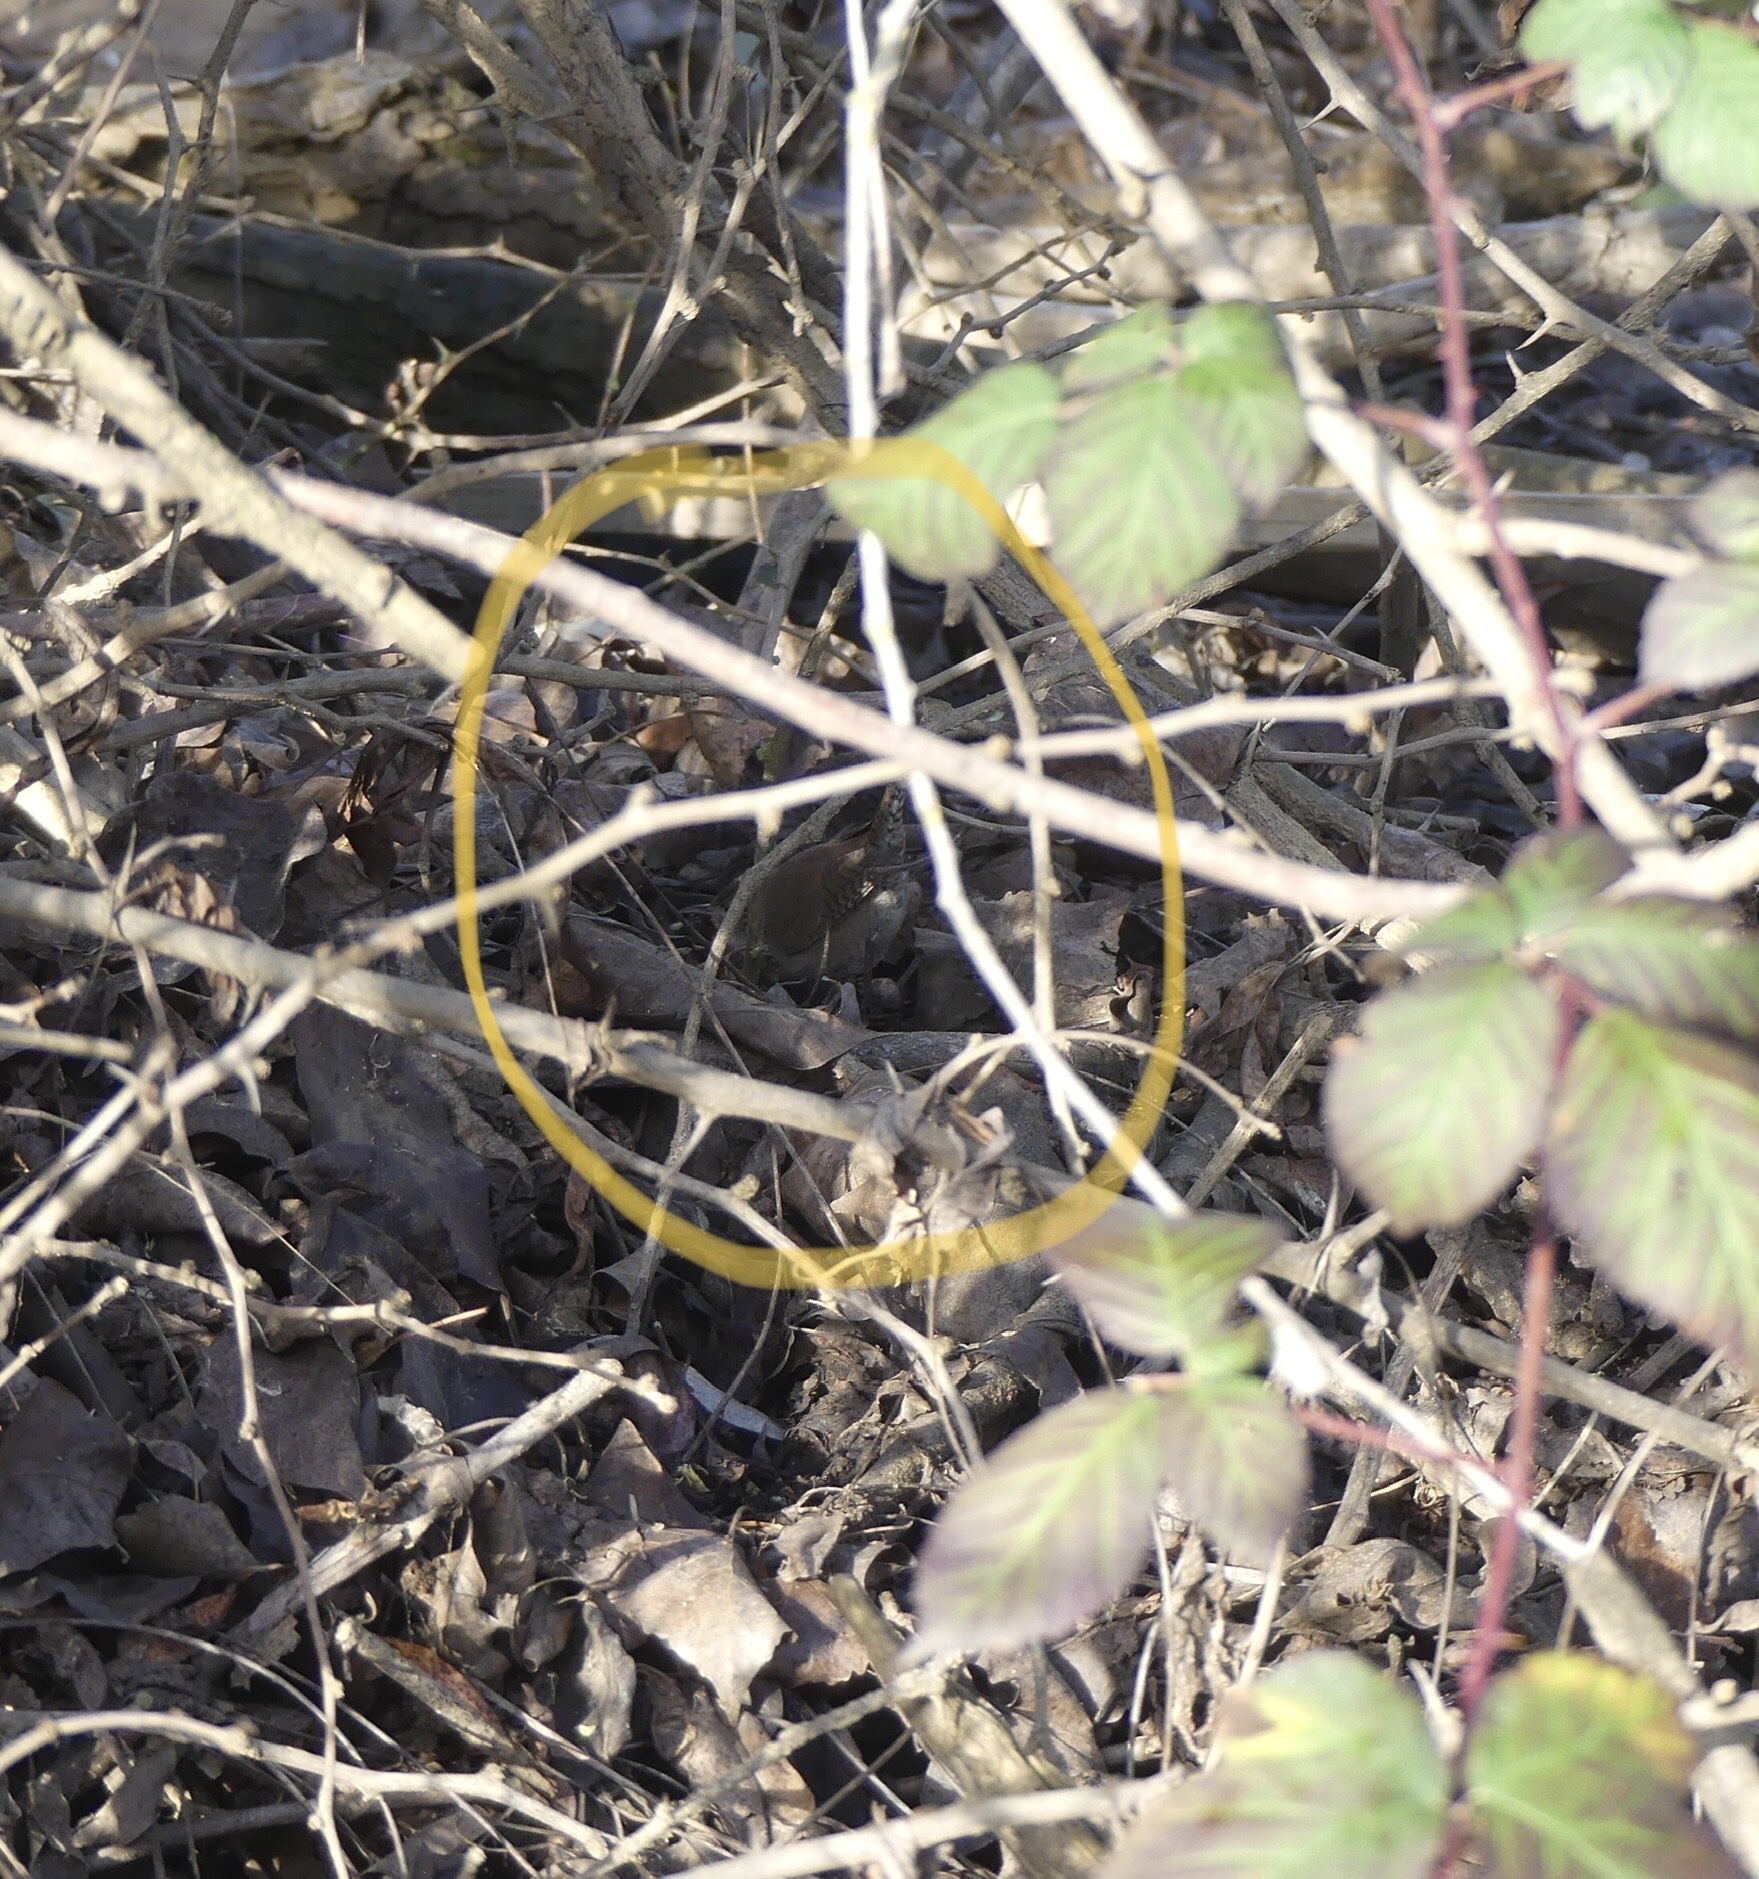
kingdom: Animalia
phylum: Chordata
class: Aves
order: Passeriformes
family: Troglodytidae
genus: Troglodytes
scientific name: Troglodytes aedon
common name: House wren
